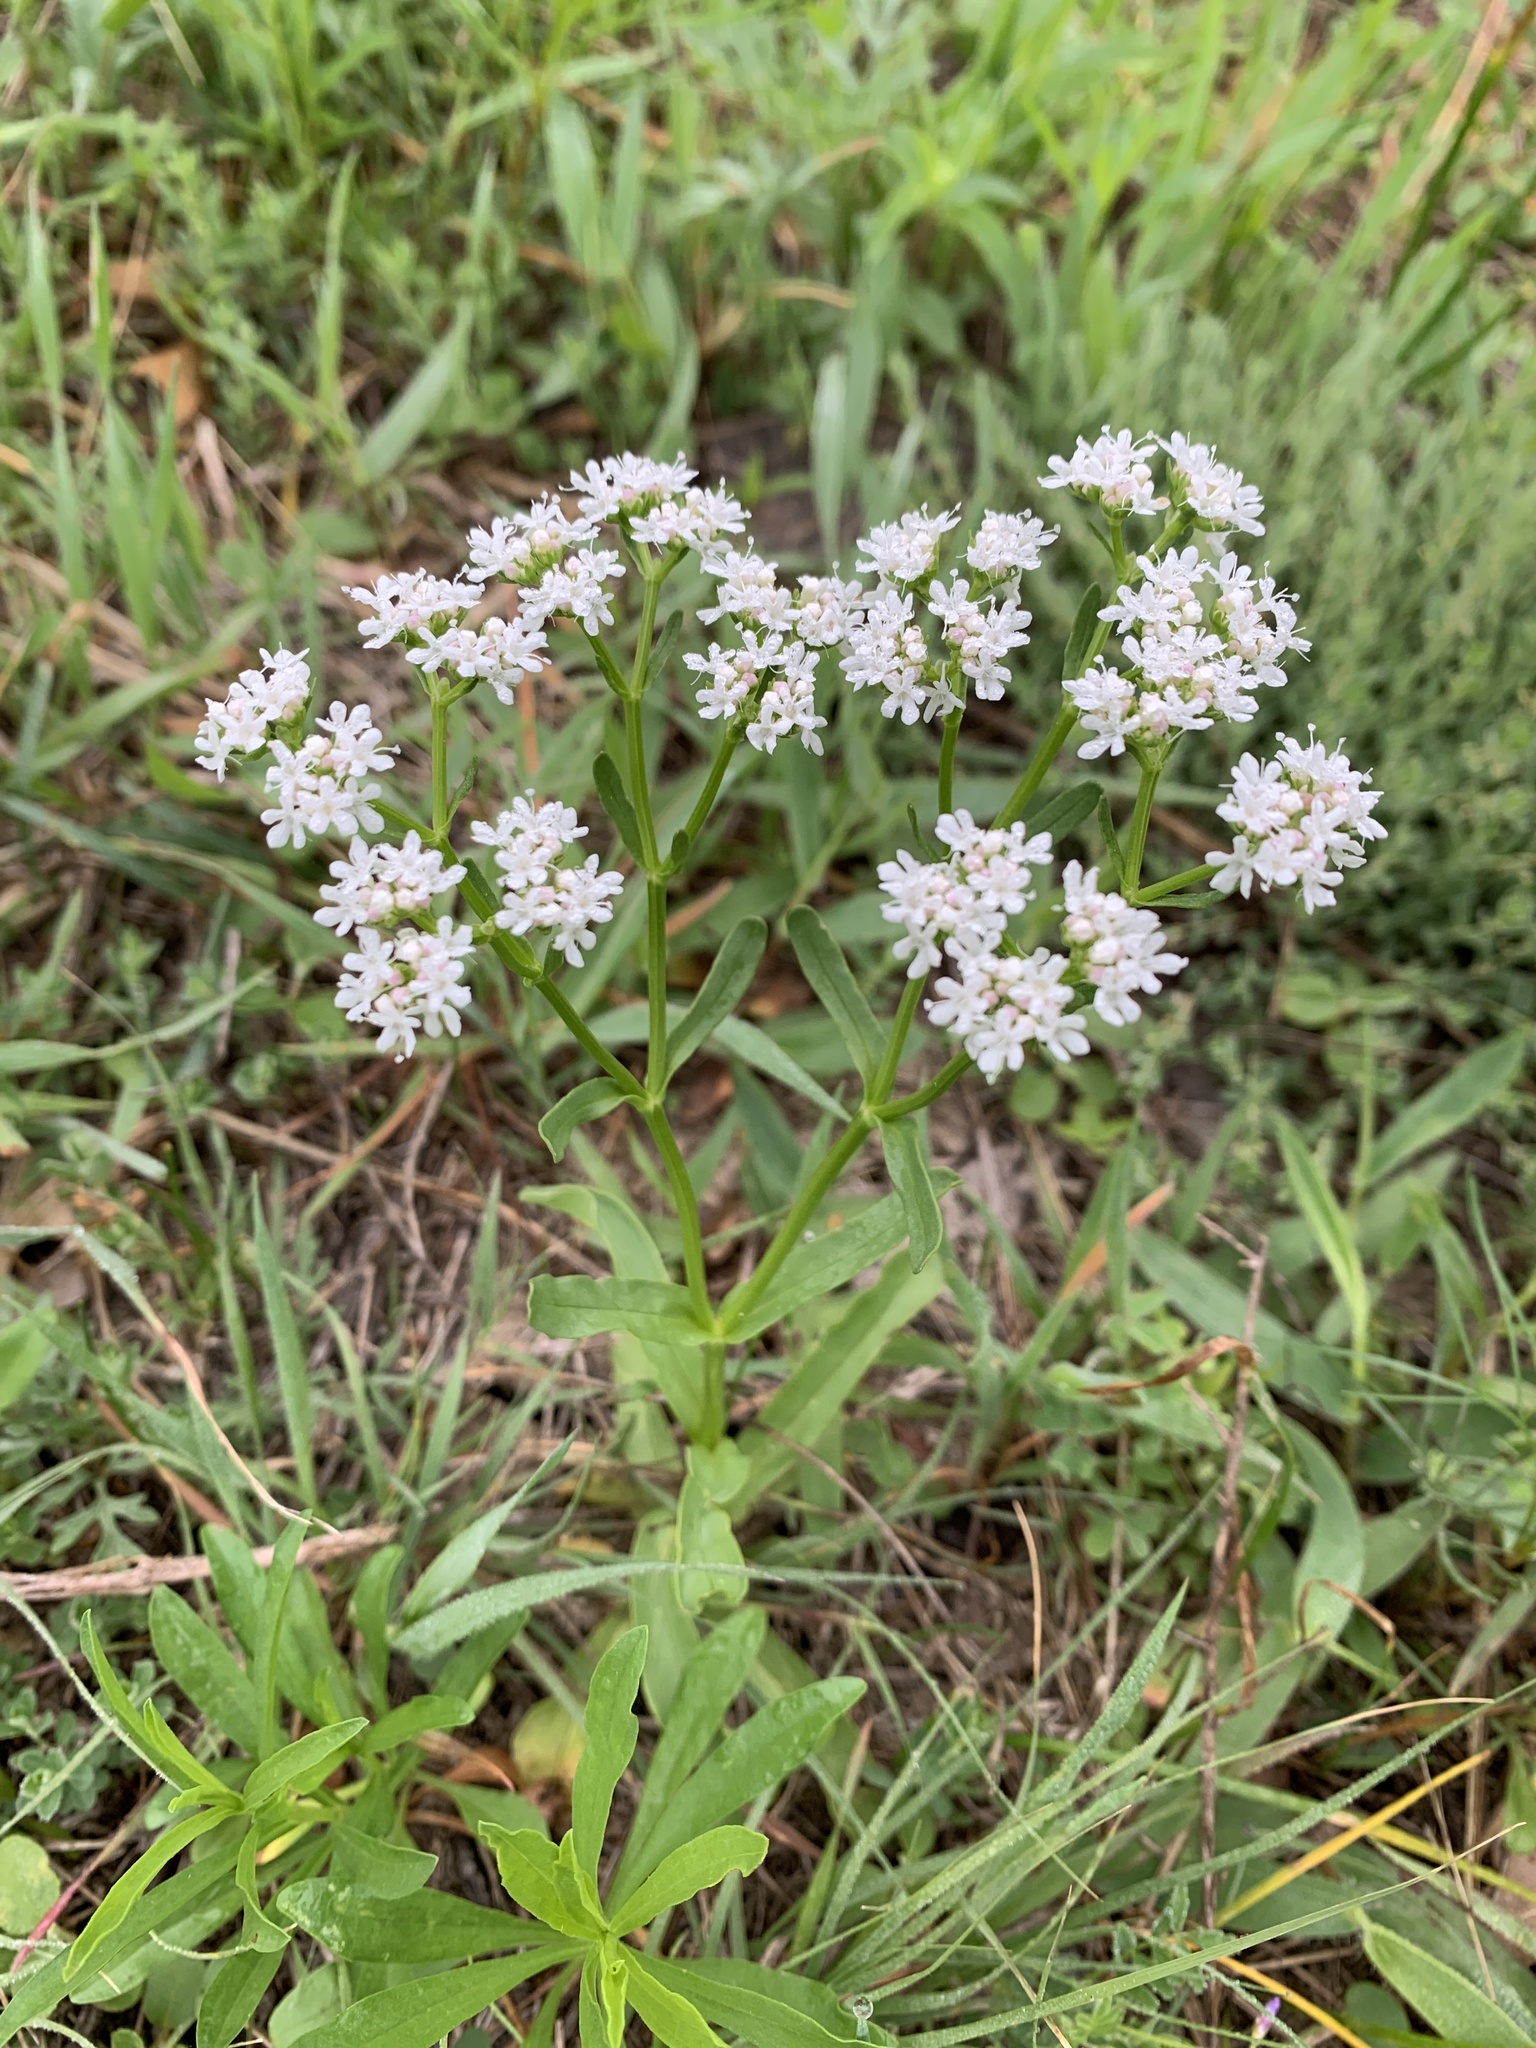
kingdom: Plantae
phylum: Tracheophyta
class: Magnoliopsida
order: Dipsacales
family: Caprifoliaceae
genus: Valerianella
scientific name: Valerianella amarella
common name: Hariy cornsalad
